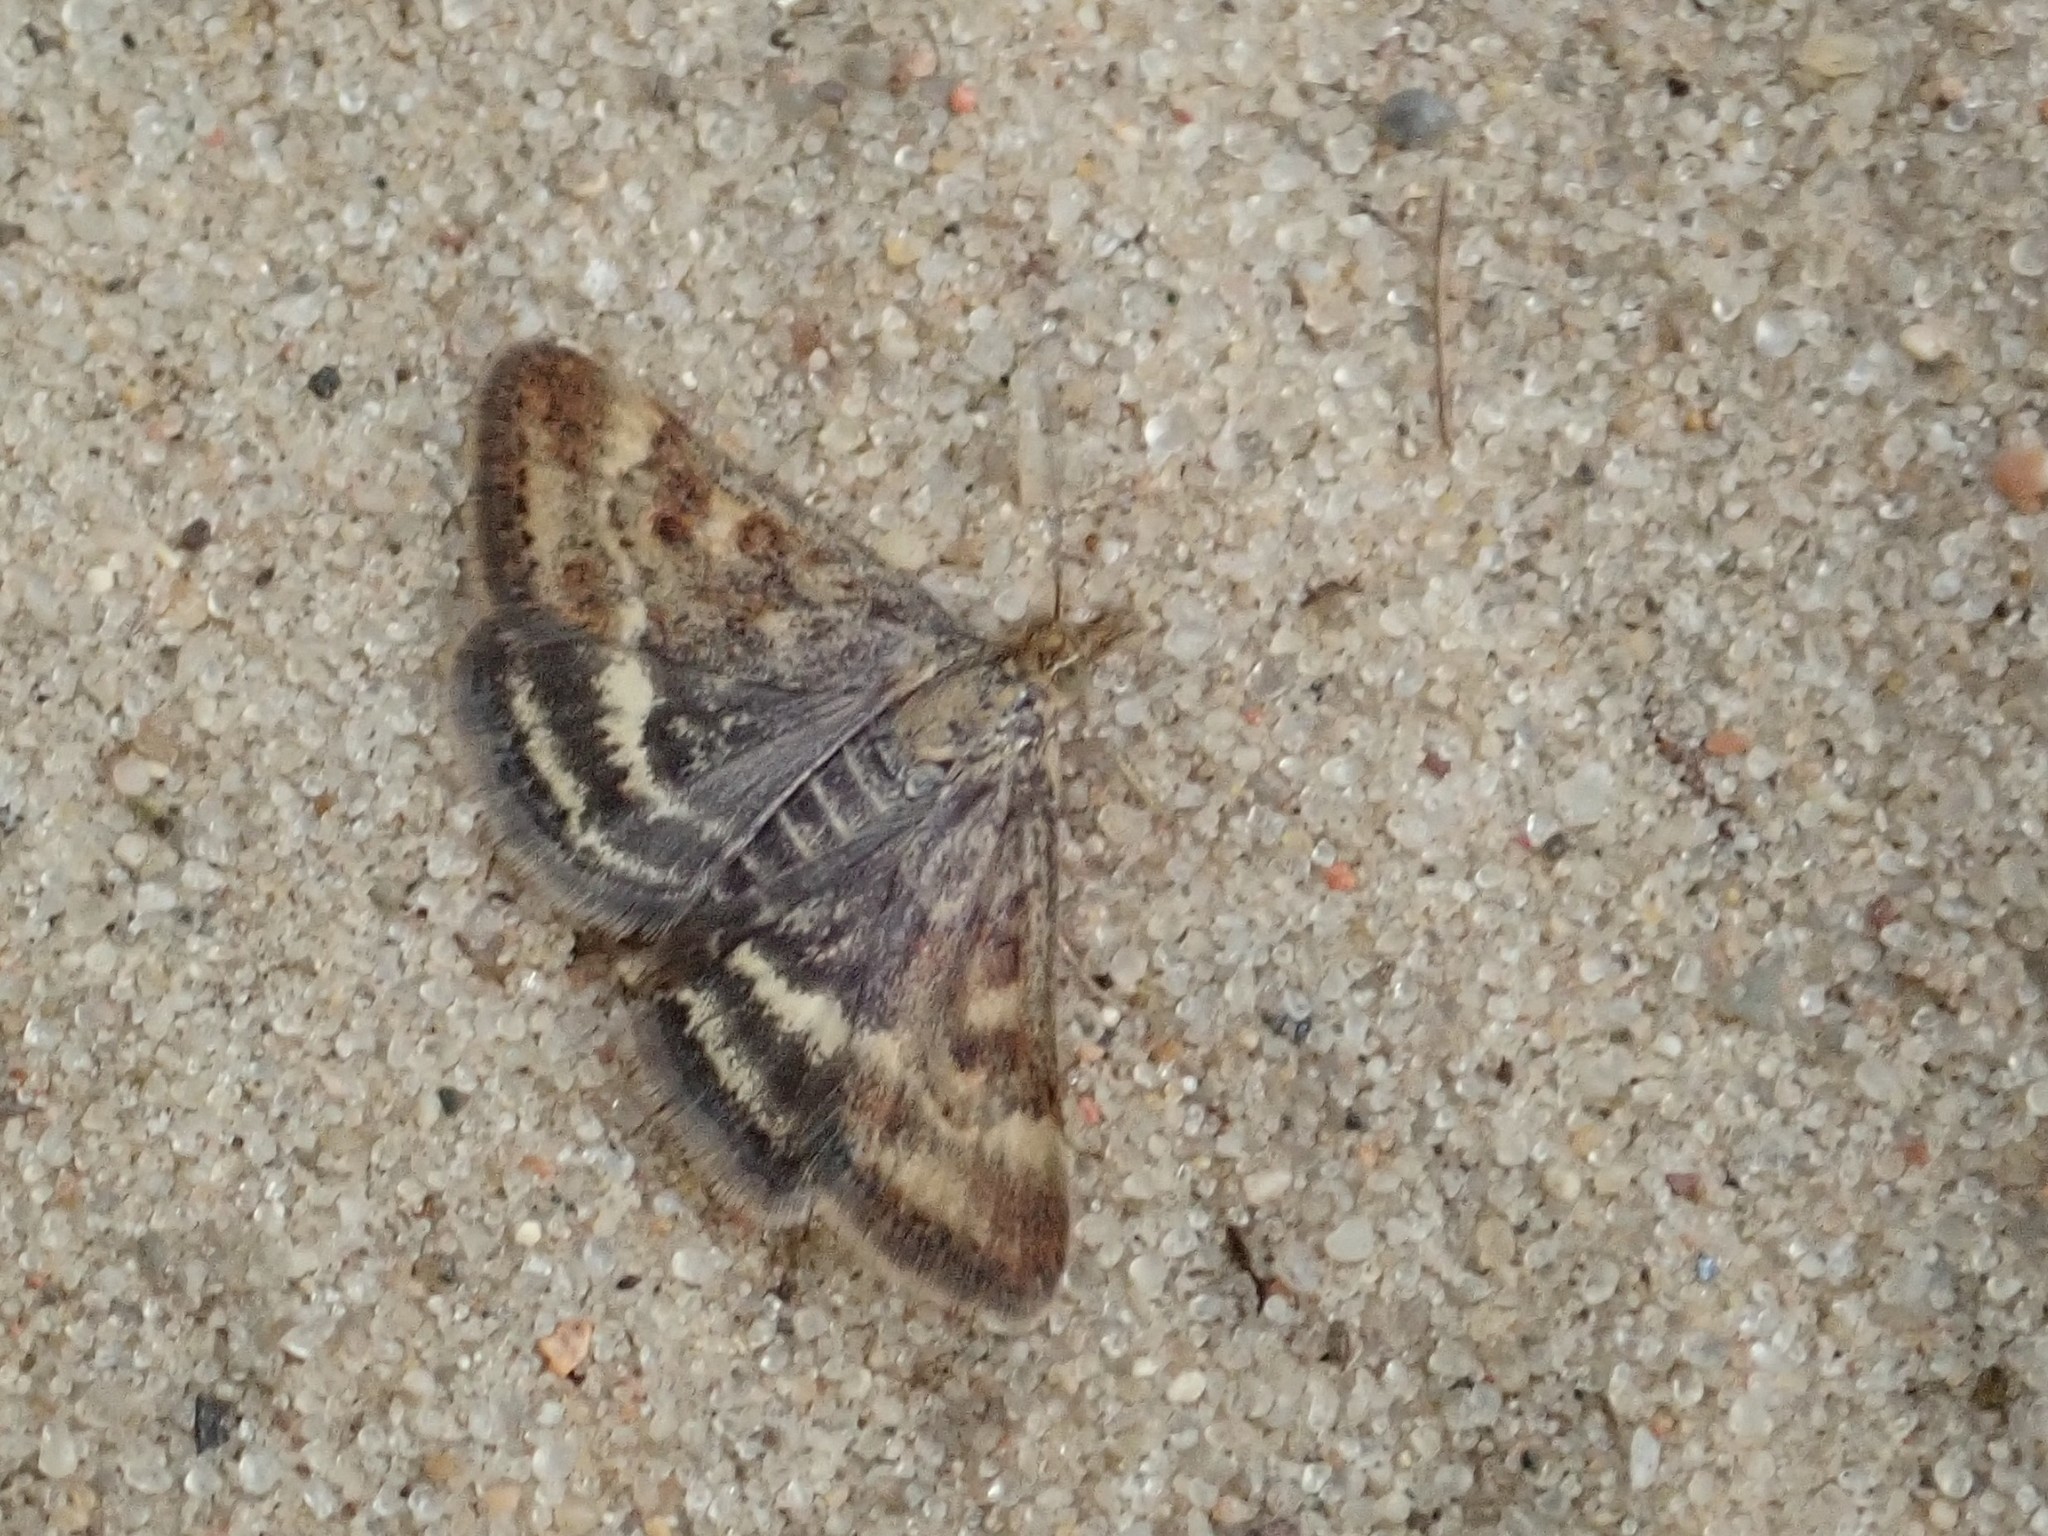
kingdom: Animalia
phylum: Arthropoda
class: Insecta
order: Lepidoptera
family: Crambidae
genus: Pyrausta
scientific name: Pyrausta despicata
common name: Straw-barred pearl
